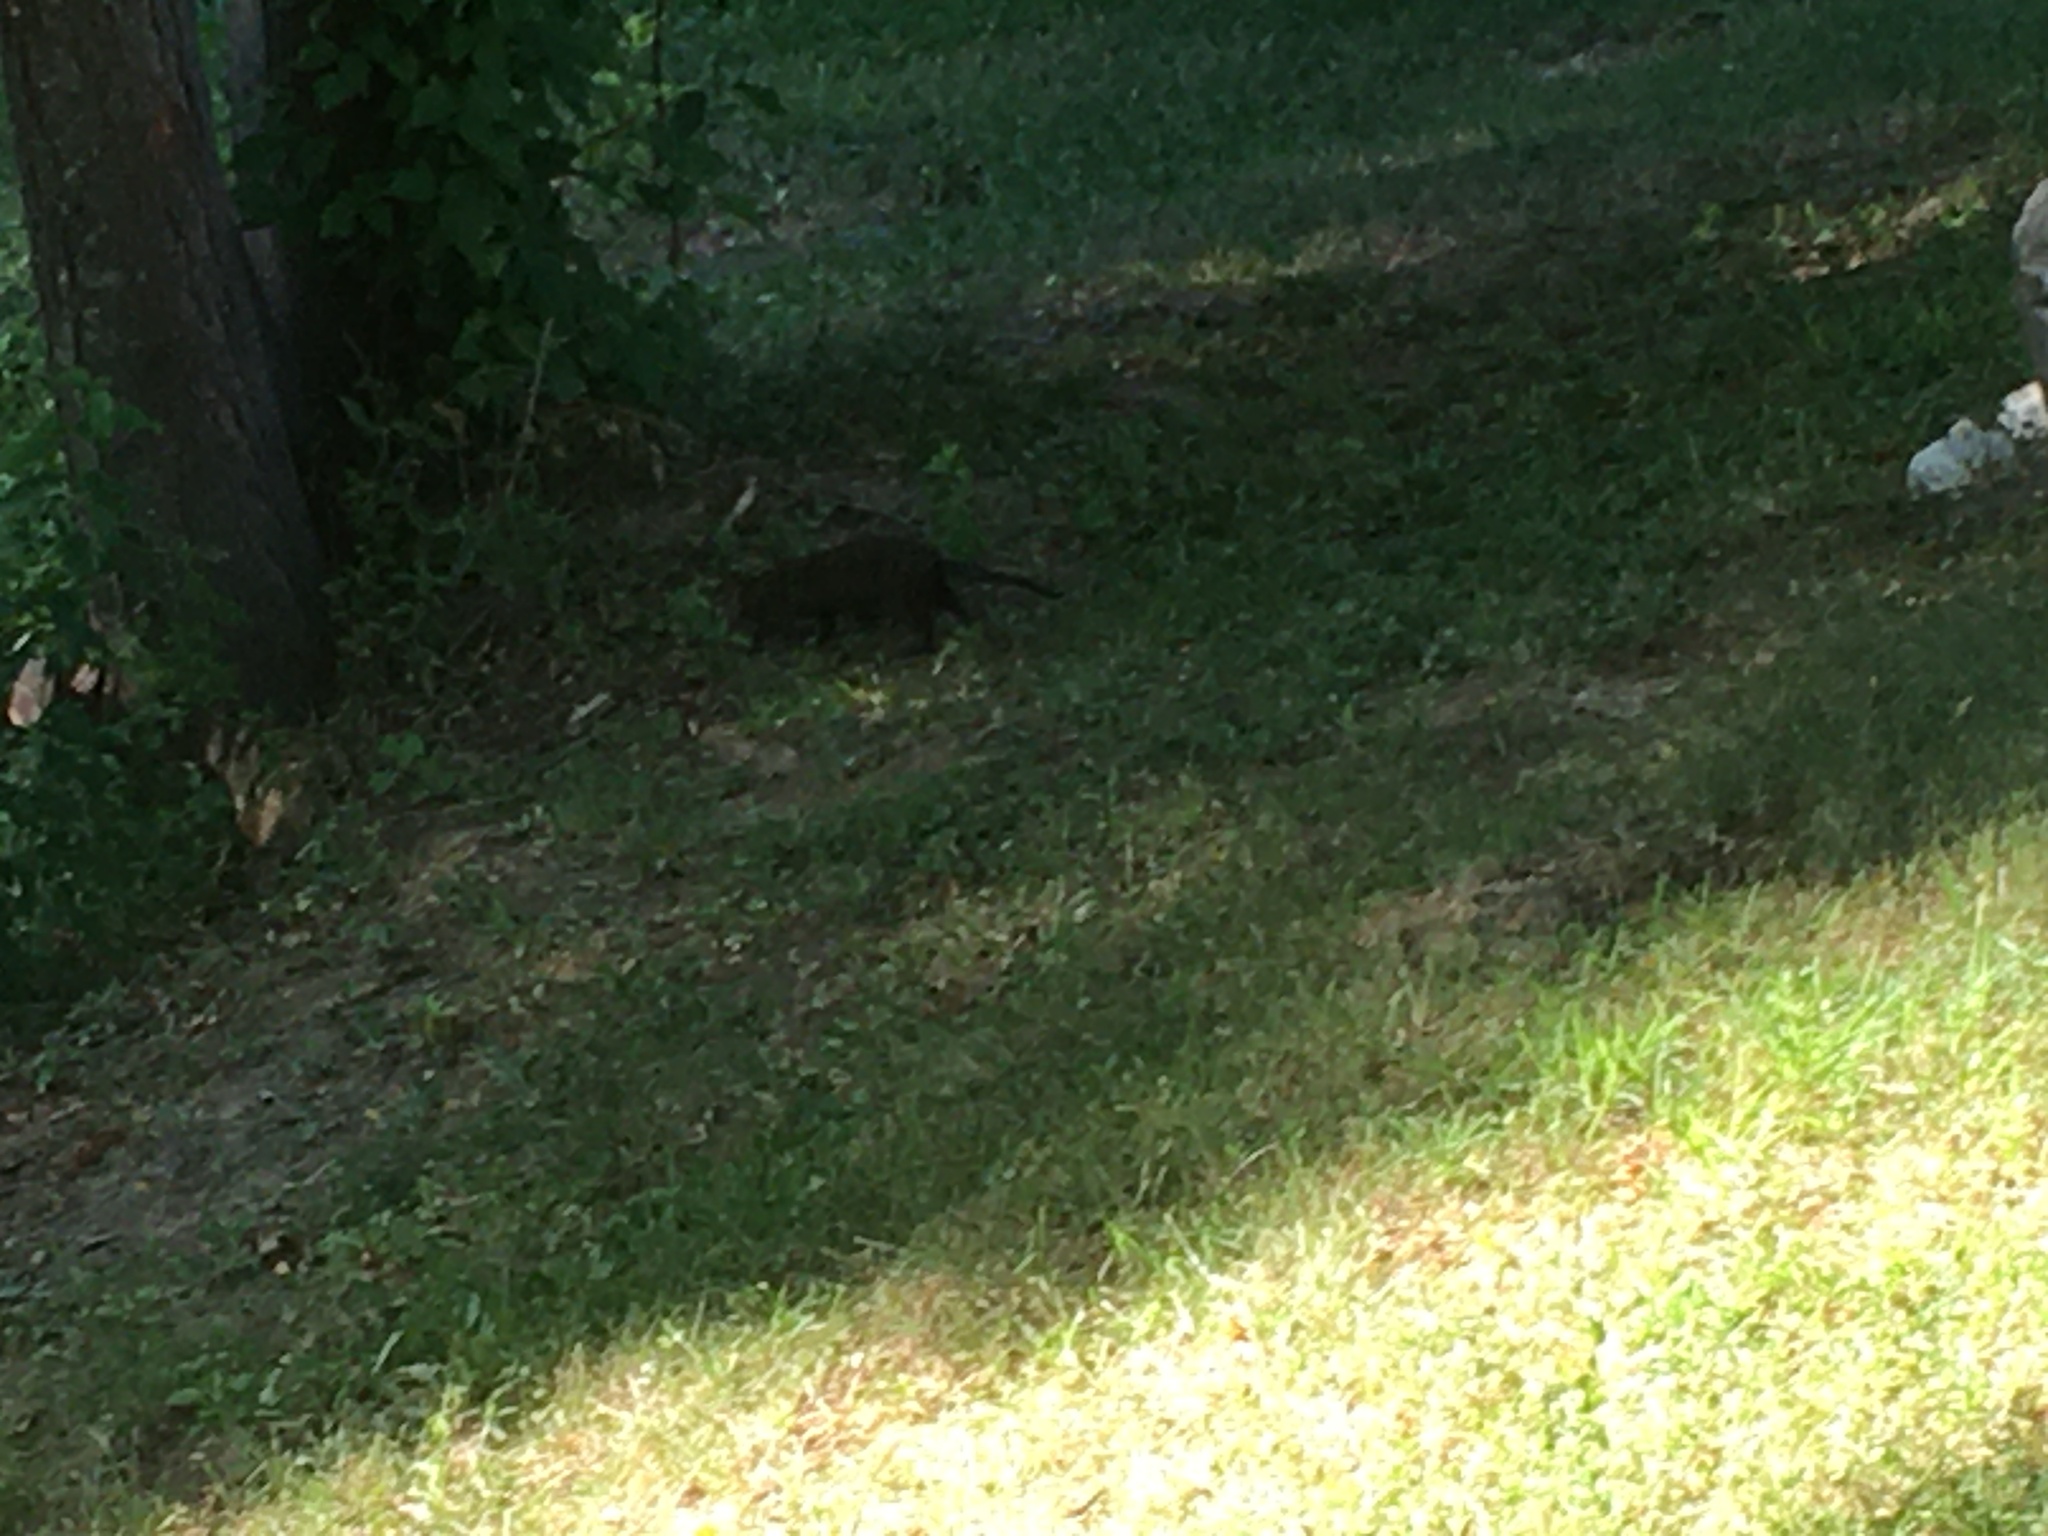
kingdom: Animalia
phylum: Chordata
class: Mammalia
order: Carnivora
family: Mustelidae
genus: Mustela
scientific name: Mustela
